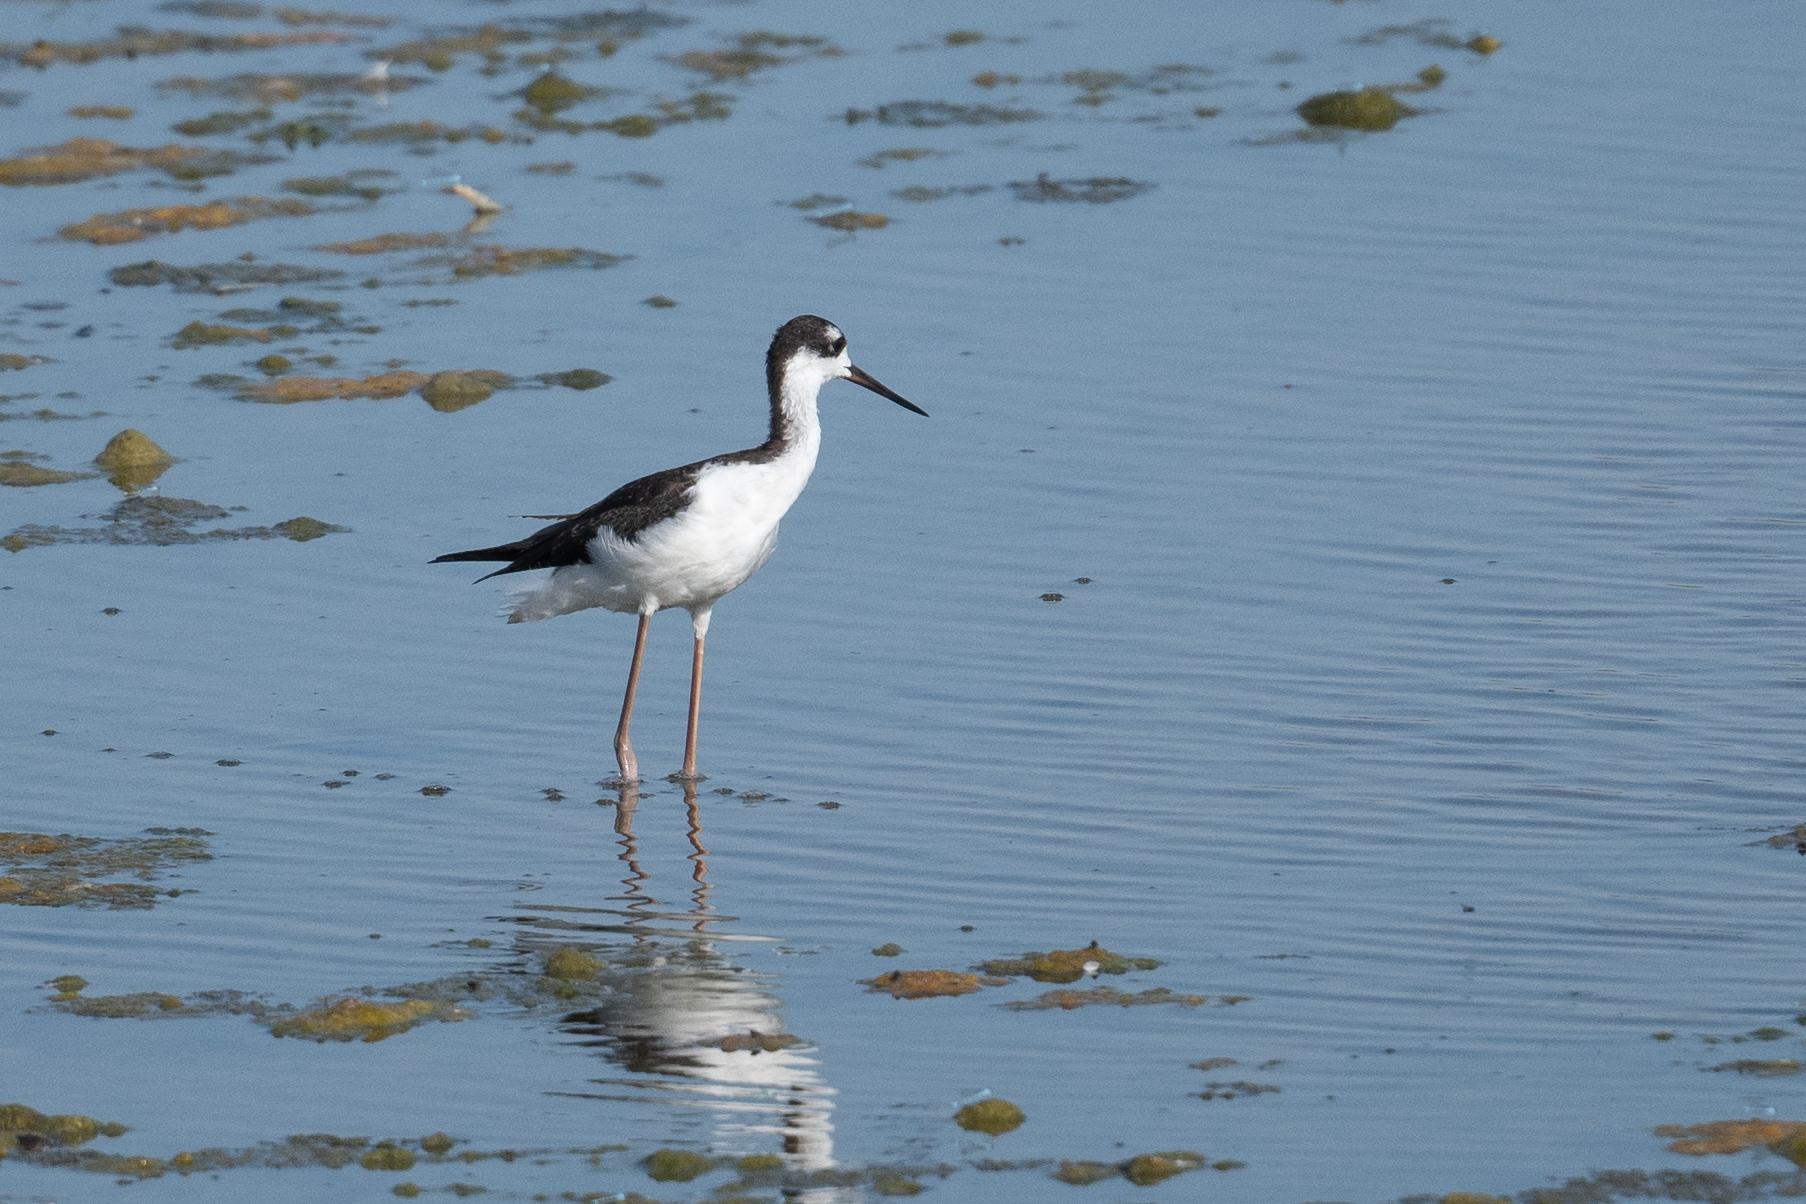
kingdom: Animalia
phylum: Chordata
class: Aves
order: Charadriiformes
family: Recurvirostridae
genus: Himantopus
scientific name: Himantopus mexicanus
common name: Black-necked stilt
